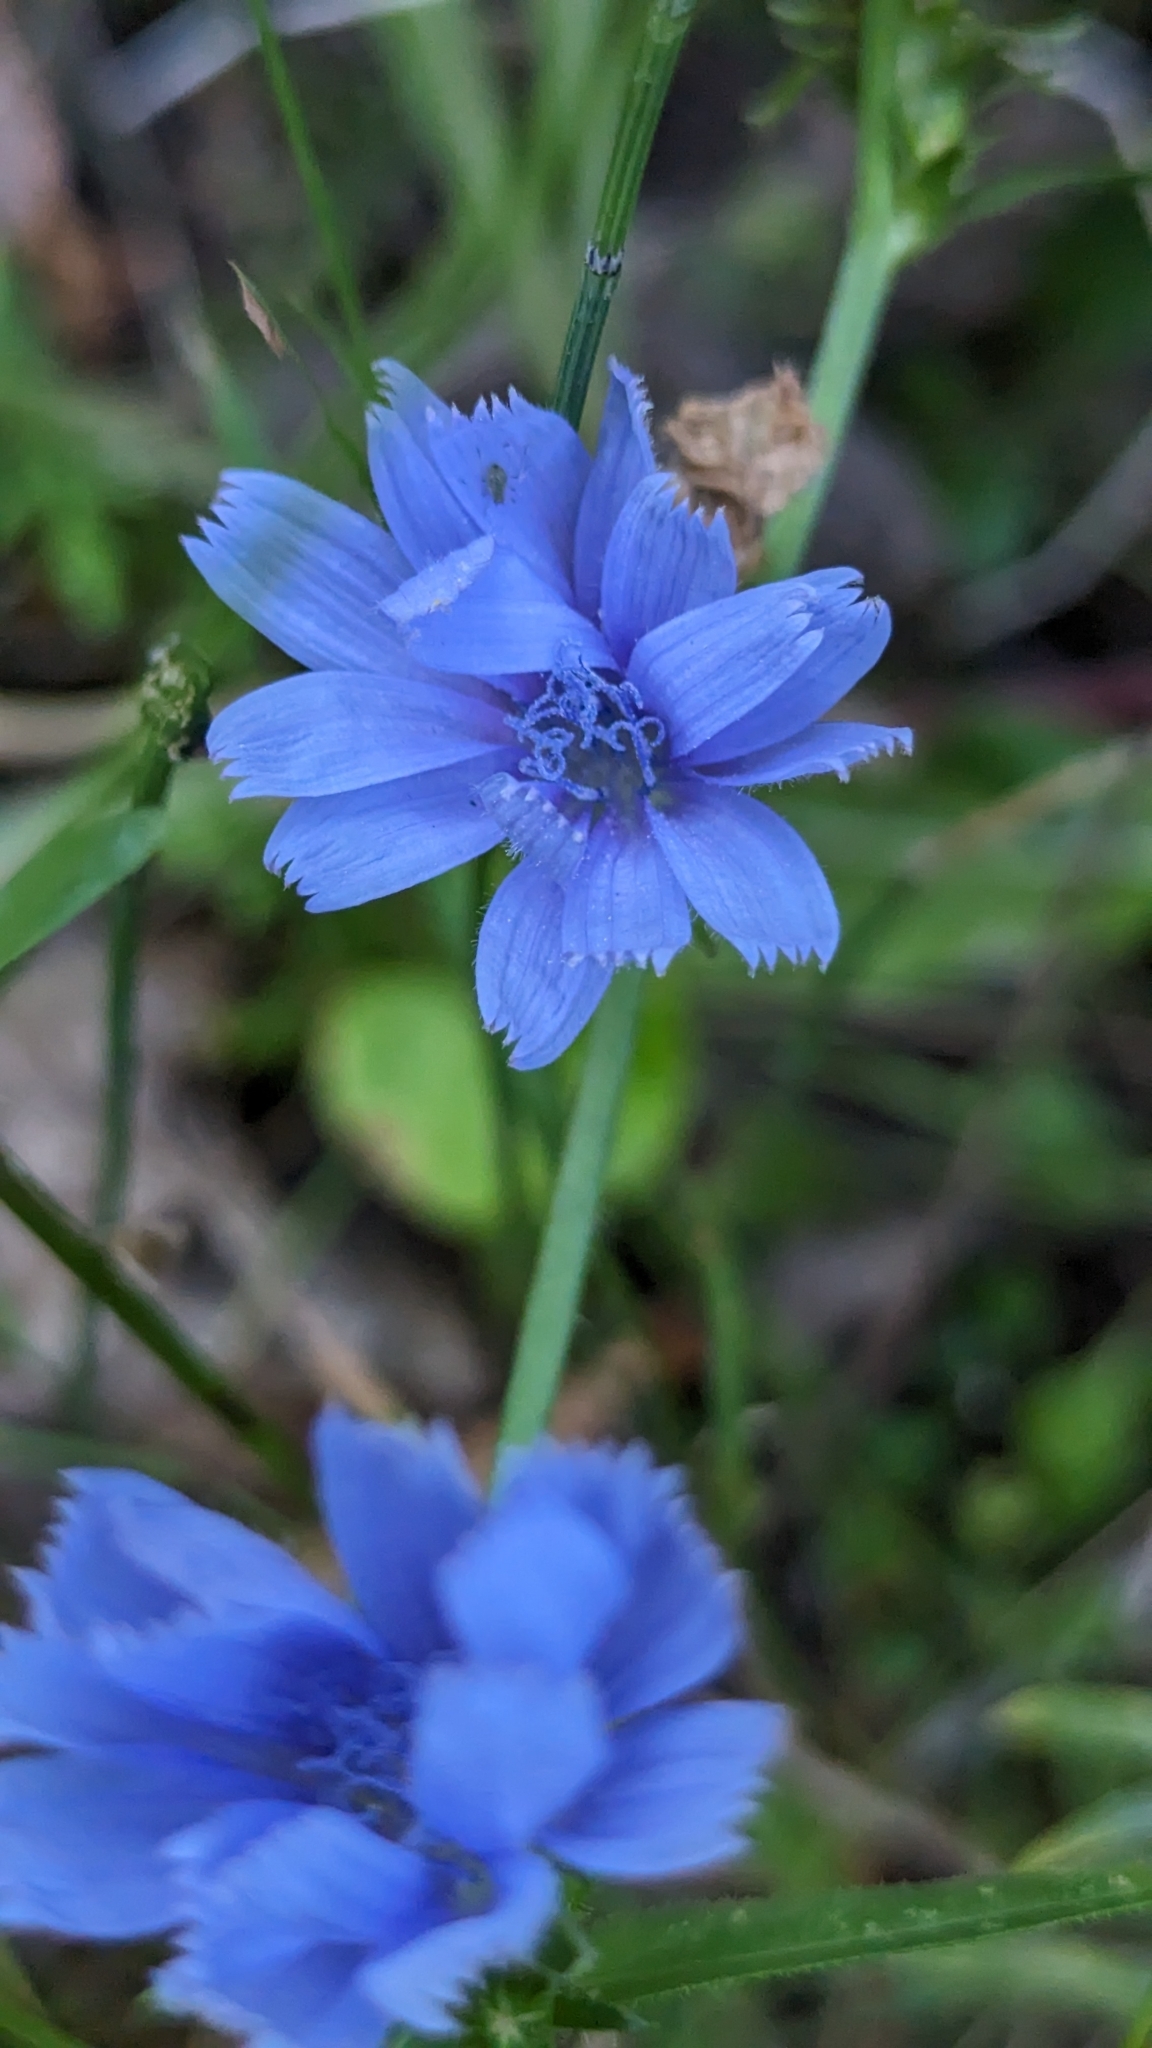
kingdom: Plantae
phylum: Tracheophyta
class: Magnoliopsida
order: Asterales
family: Asteraceae
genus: Cichorium
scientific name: Cichorium intybus
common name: Chicory
